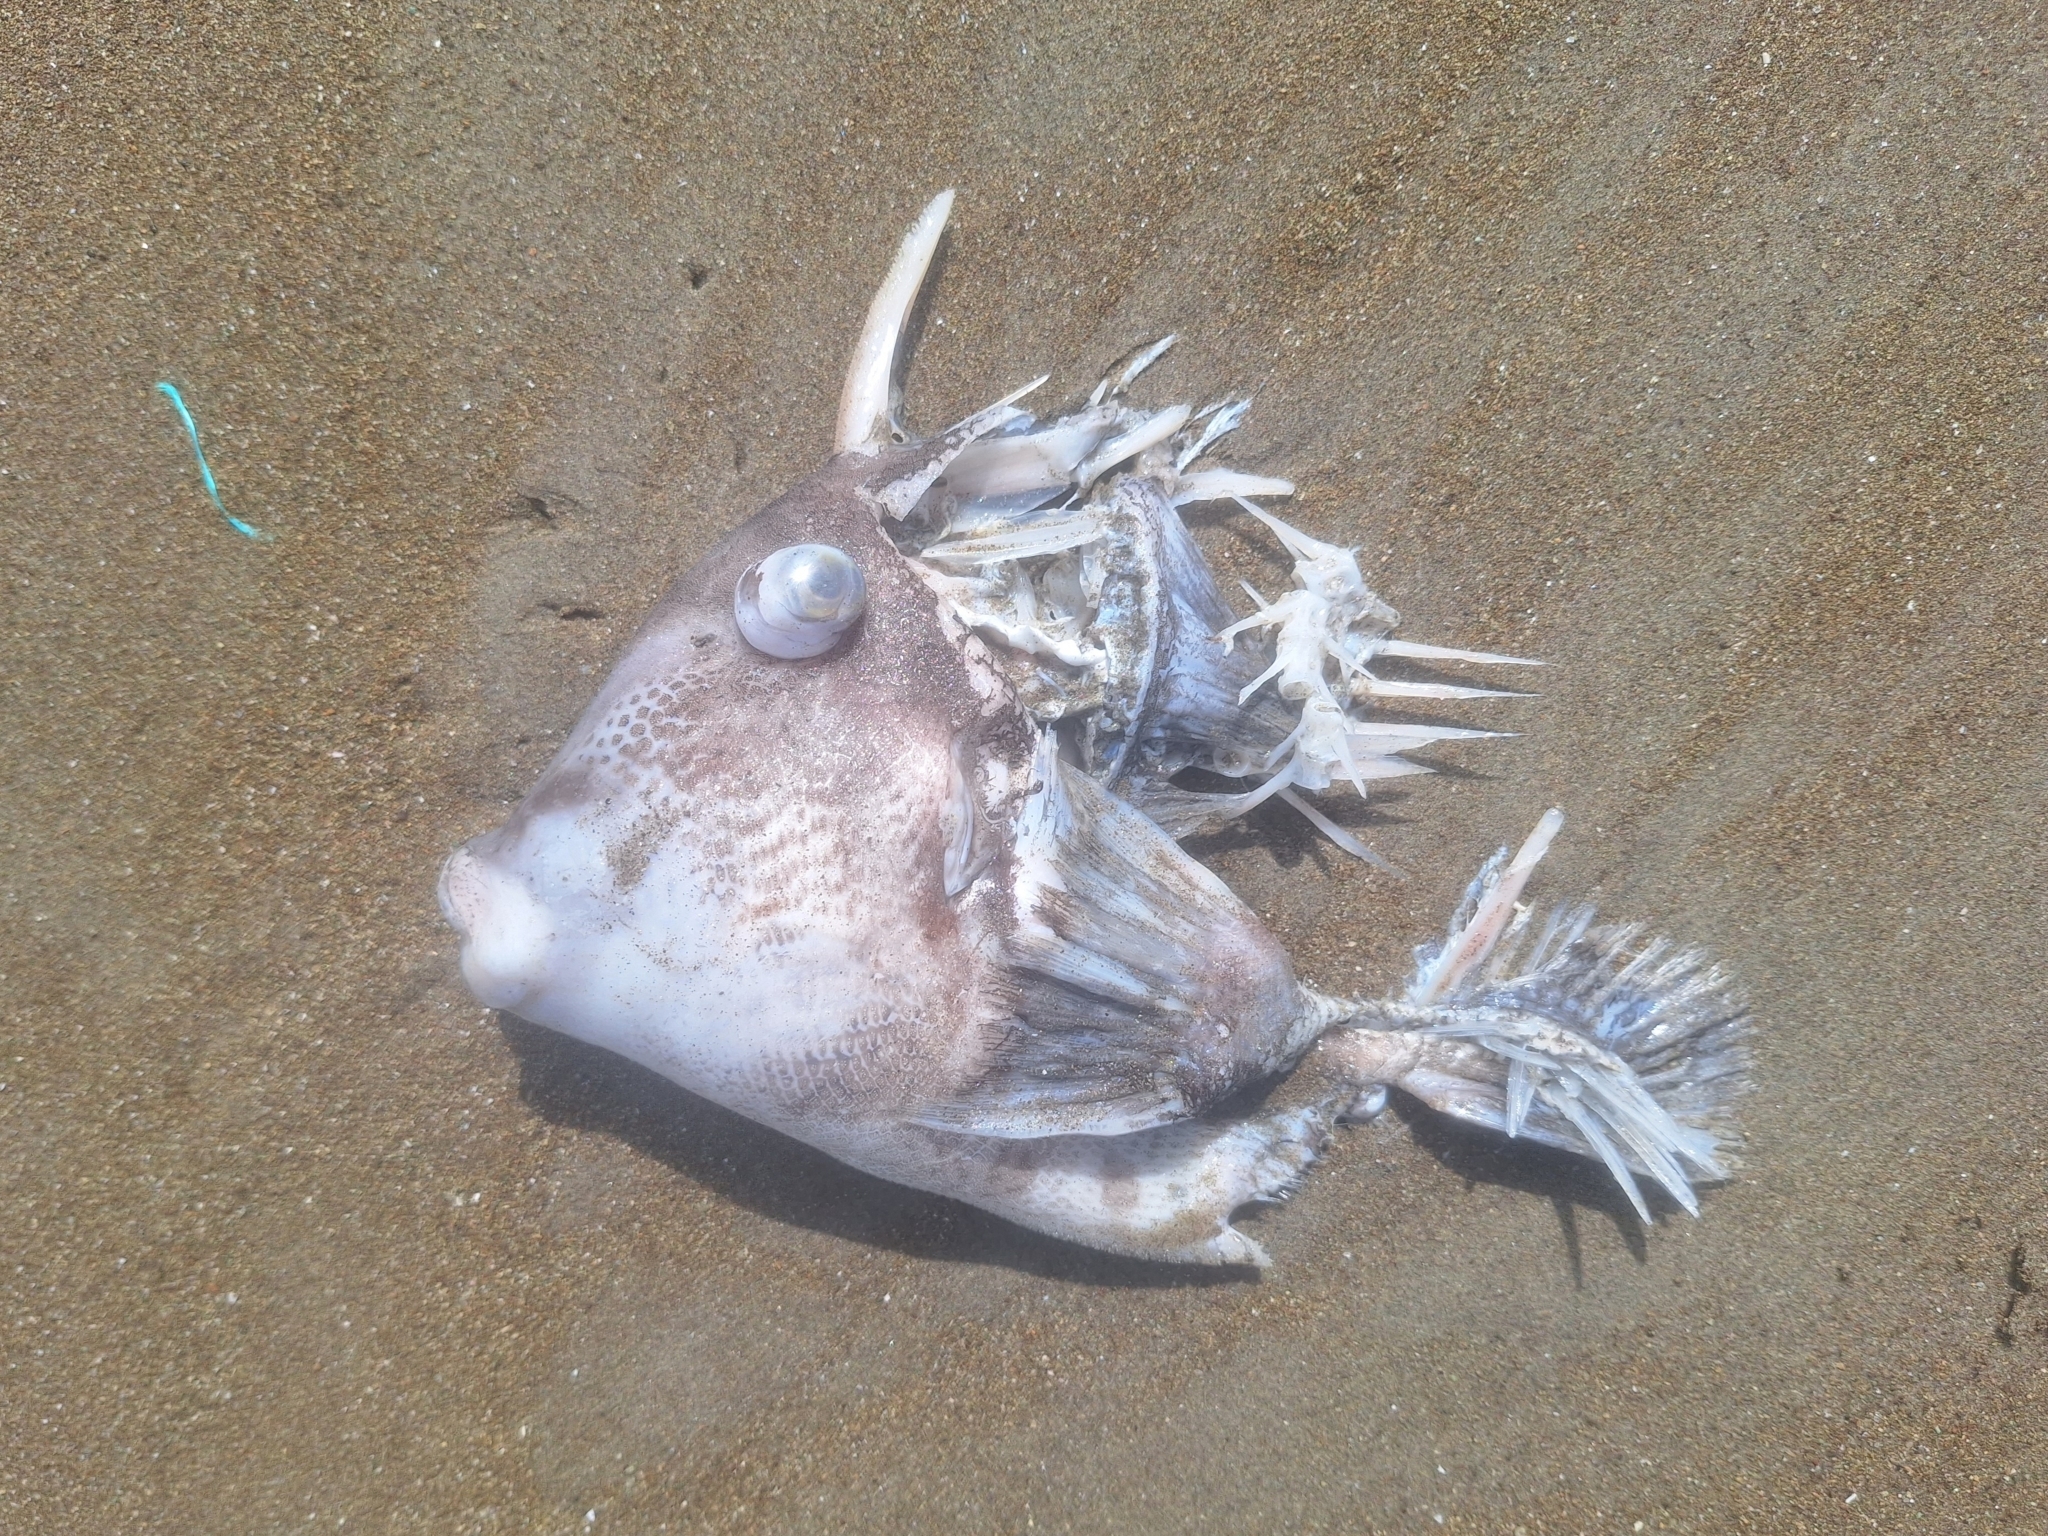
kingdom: Animalia
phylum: Chordata
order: Tetraodontiformes
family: Balistidae
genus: Balistes
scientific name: Balistes polylepis
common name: Finescale triggerfish
